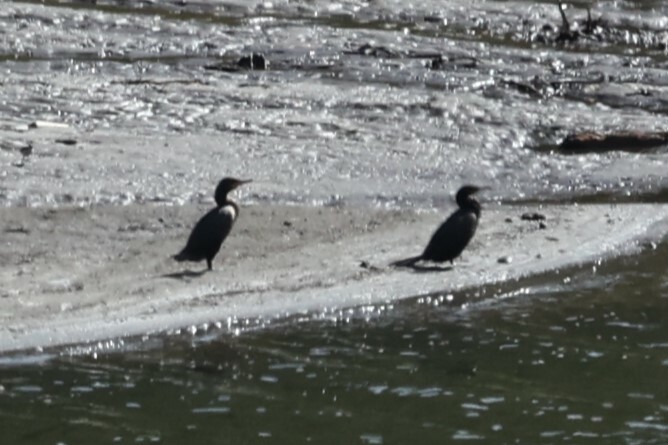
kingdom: Animalia
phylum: Chordata
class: Aves
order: Suliformes
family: Phalacrocoracidae
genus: Phalacrocorax
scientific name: Phalacrocorax brasilianus
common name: Neotropic cormorant
